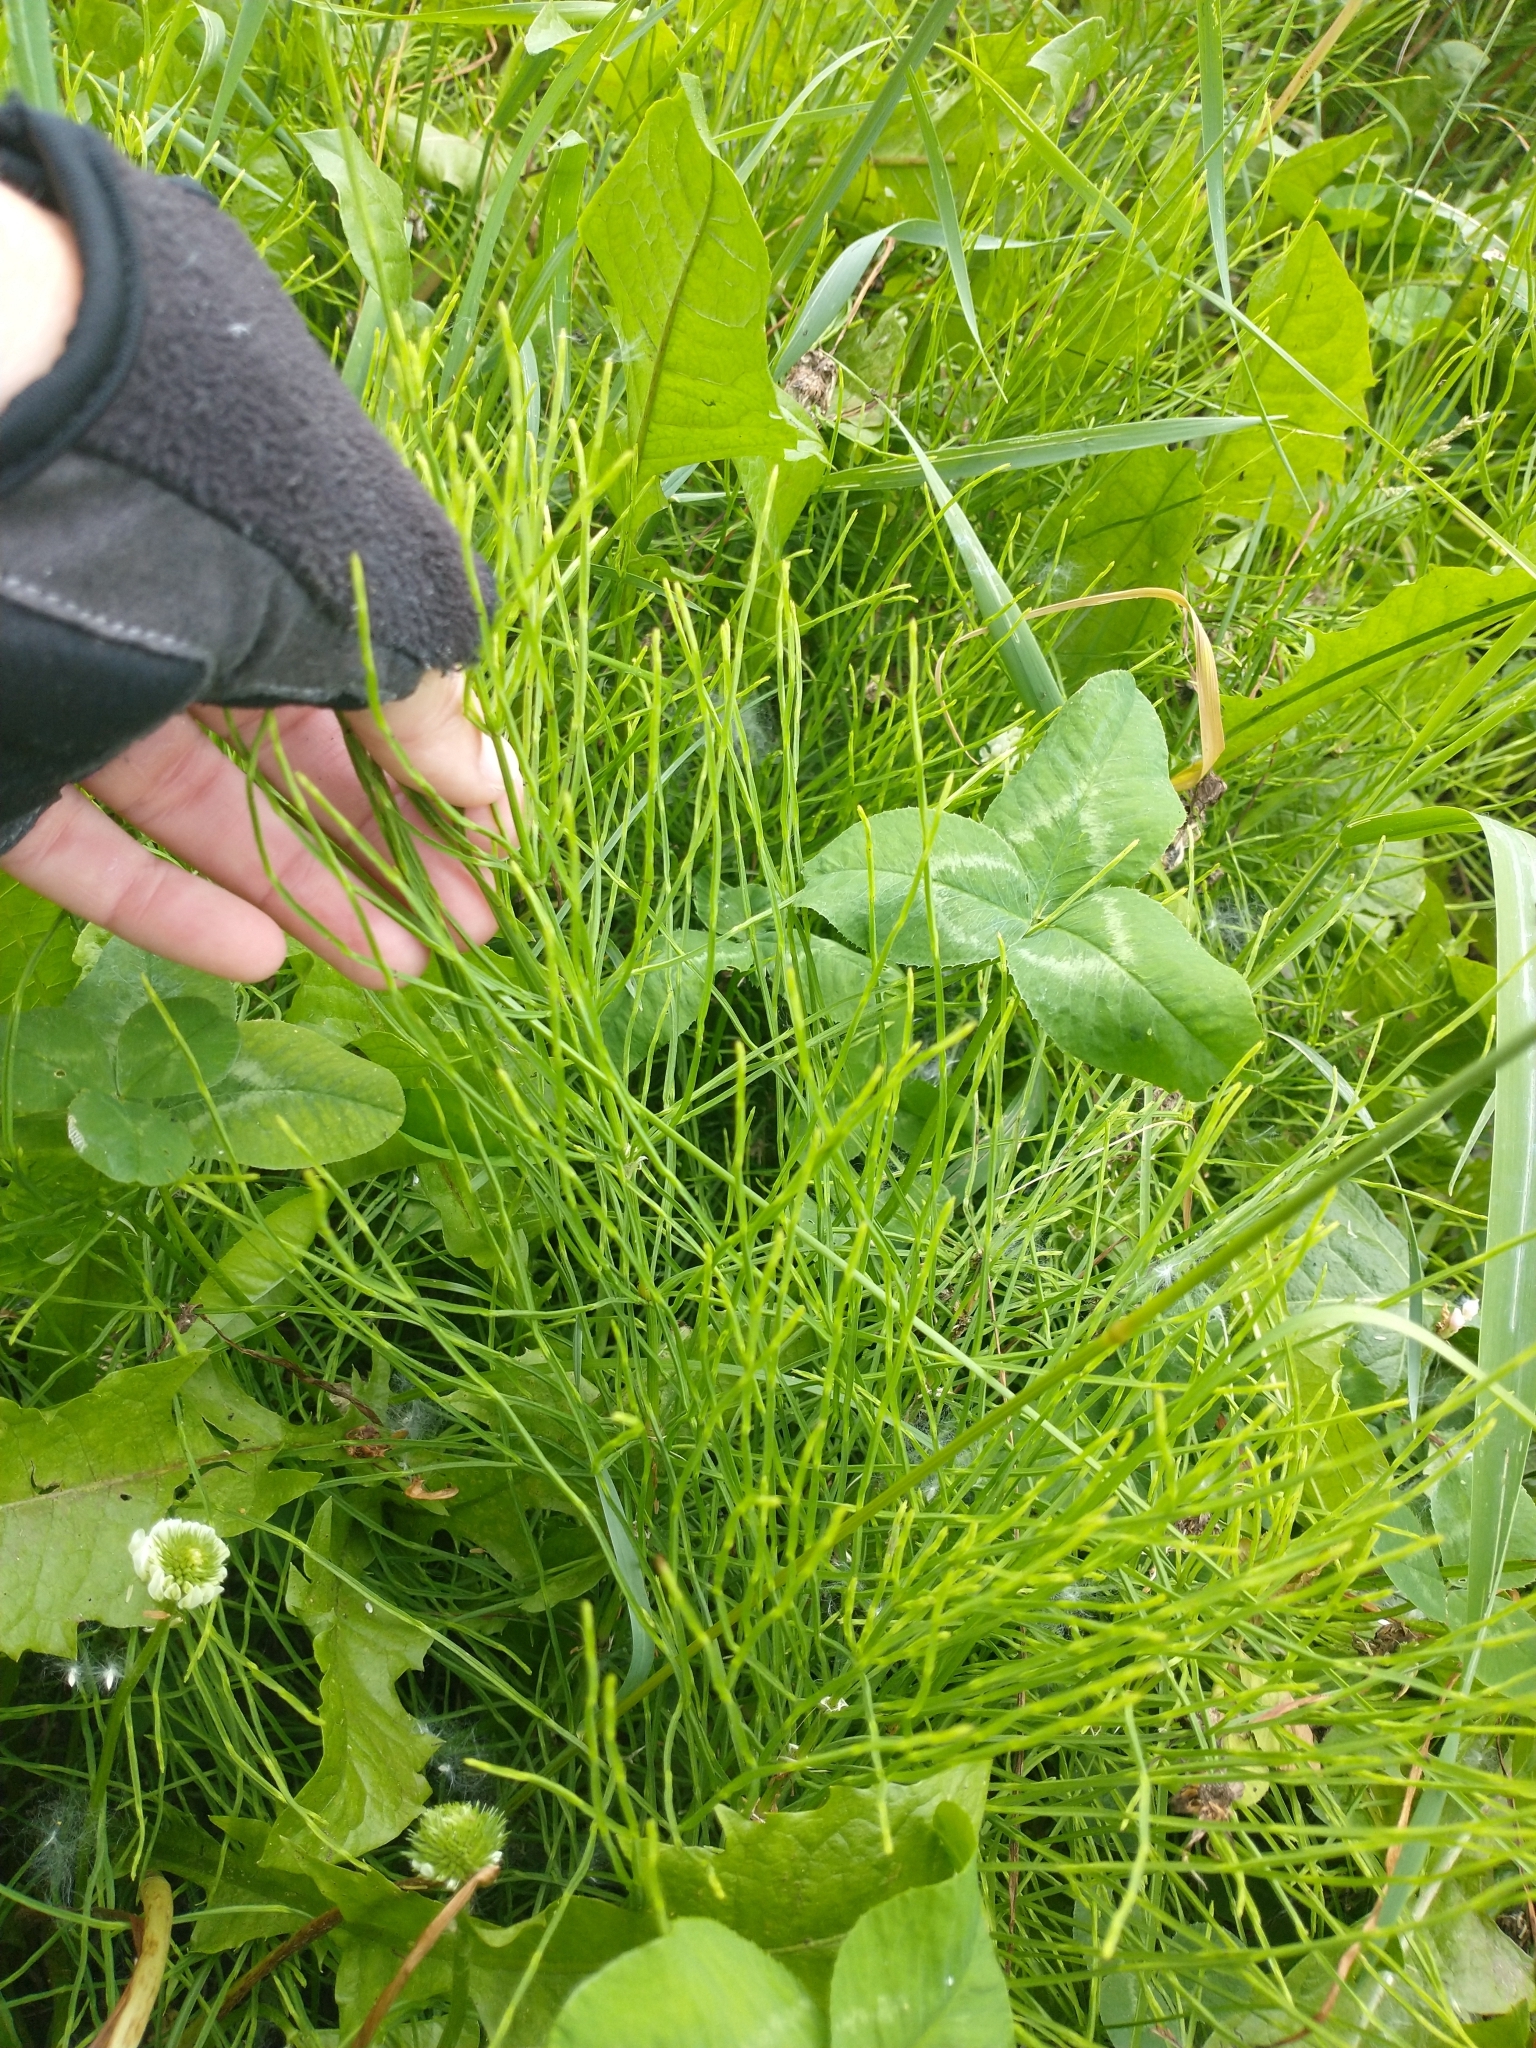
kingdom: Plantae
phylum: Tracheophyta
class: Polypodiopsida
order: Equisetales
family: Equisetaceae
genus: Equisetum
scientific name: Equisetum arvense
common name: Field horsetail
